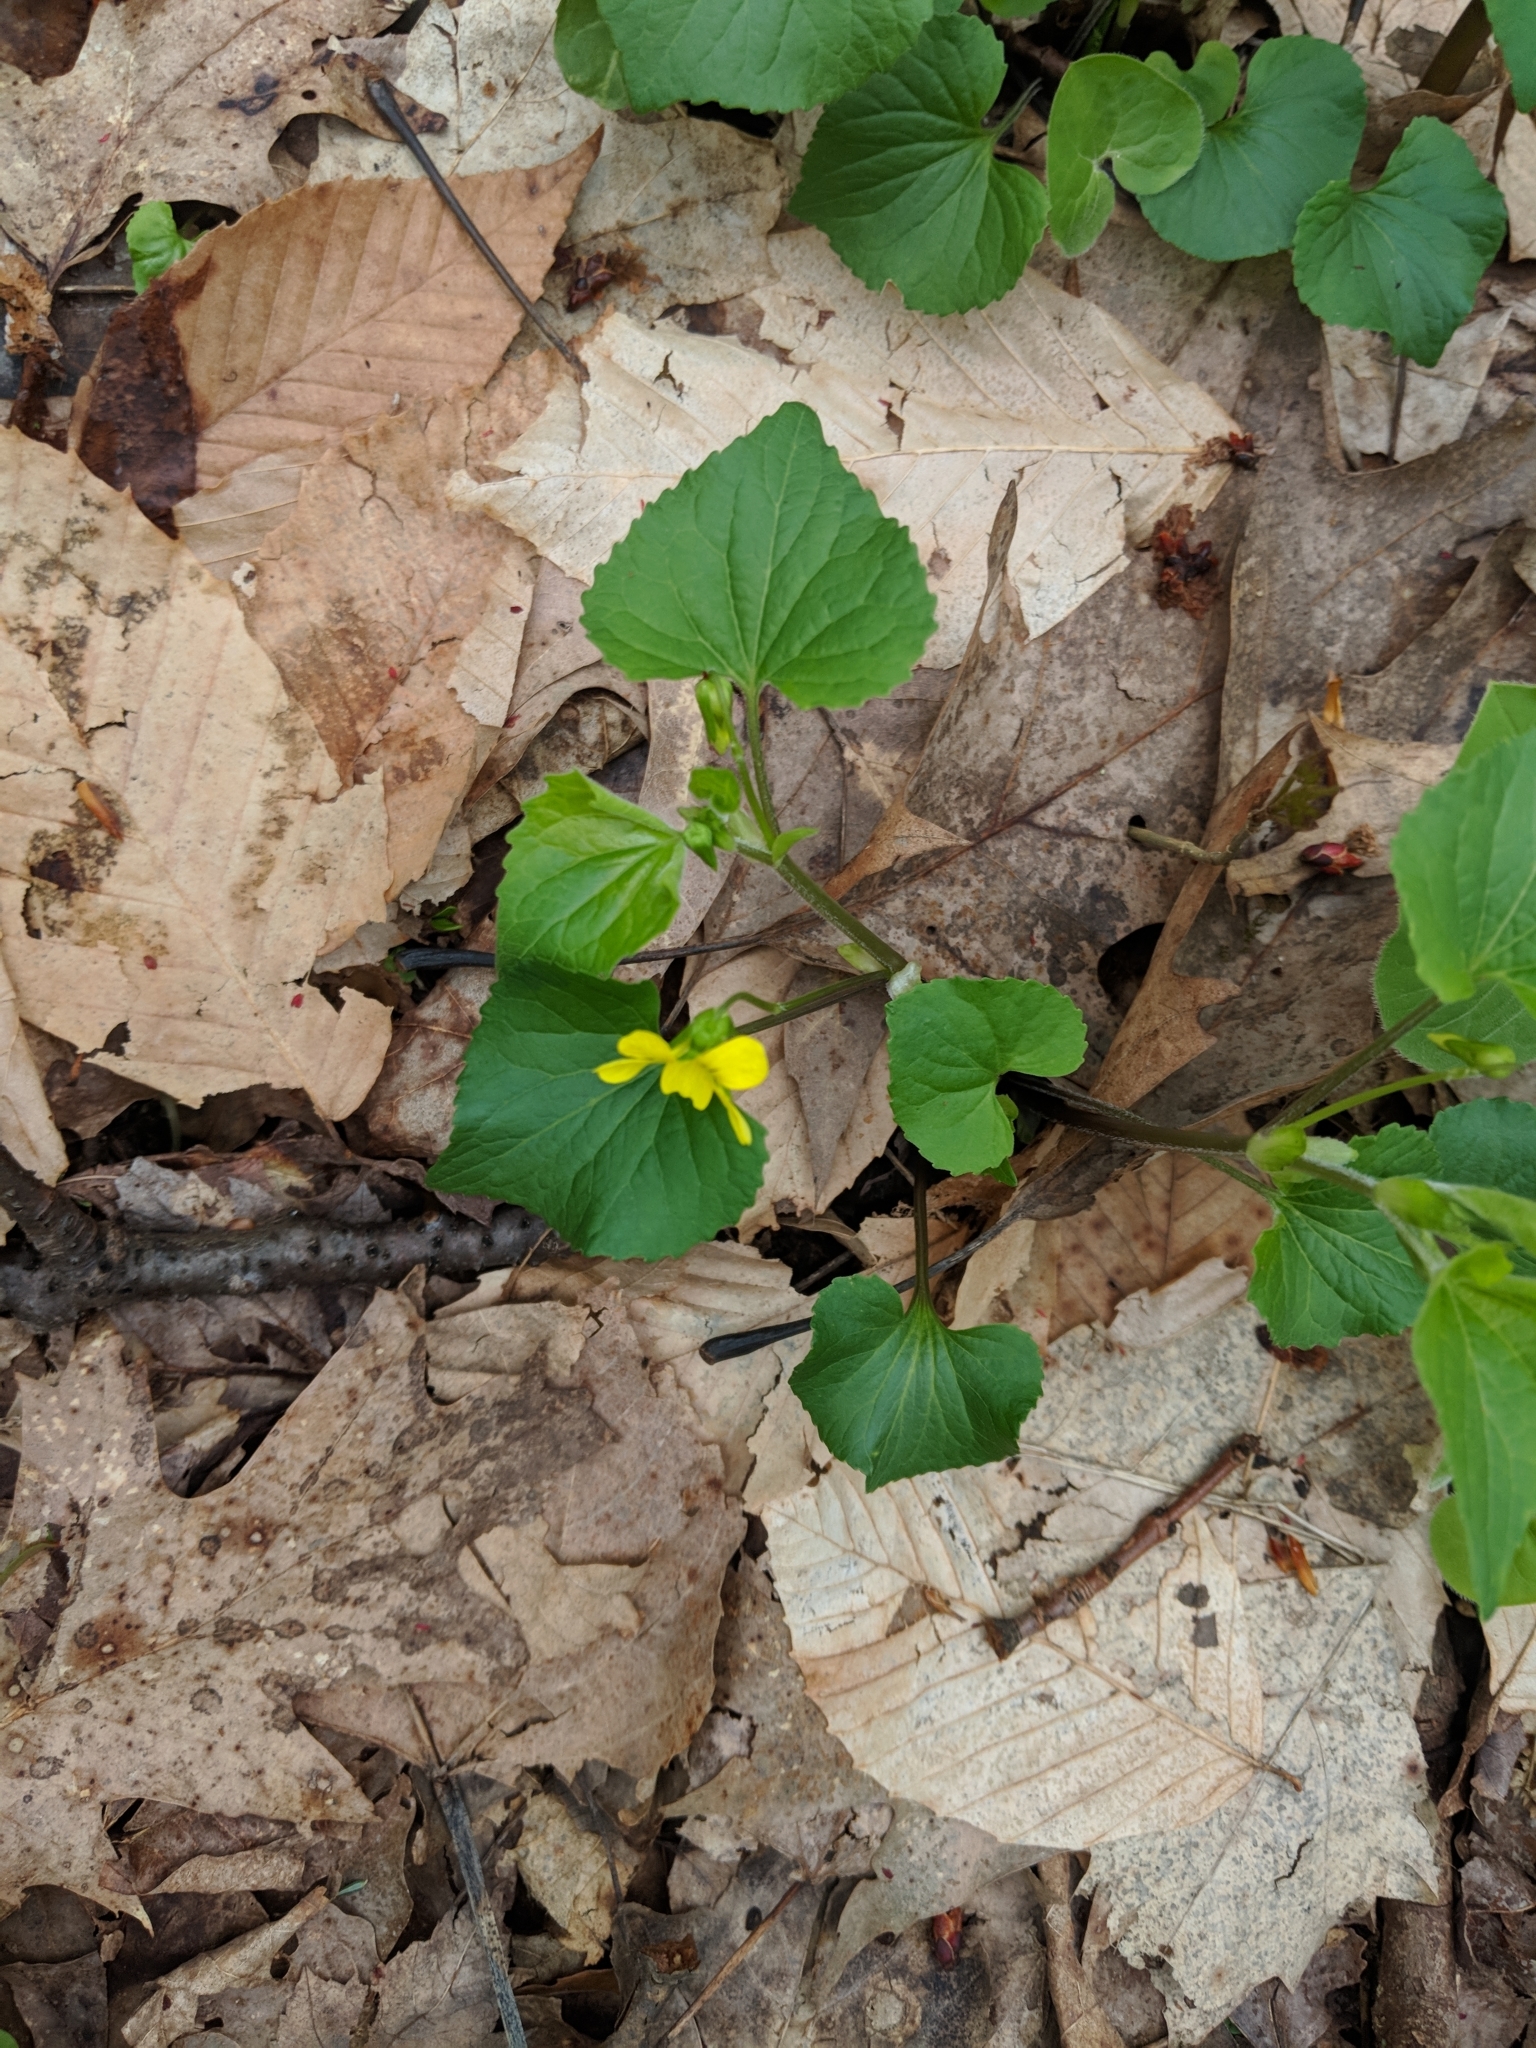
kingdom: Plantae
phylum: Tracheophyta
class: Magnoliopsida
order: Malpighiales
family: Violaceae
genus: Viola
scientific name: Viola eriocarpa
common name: Smooth yellow violet
